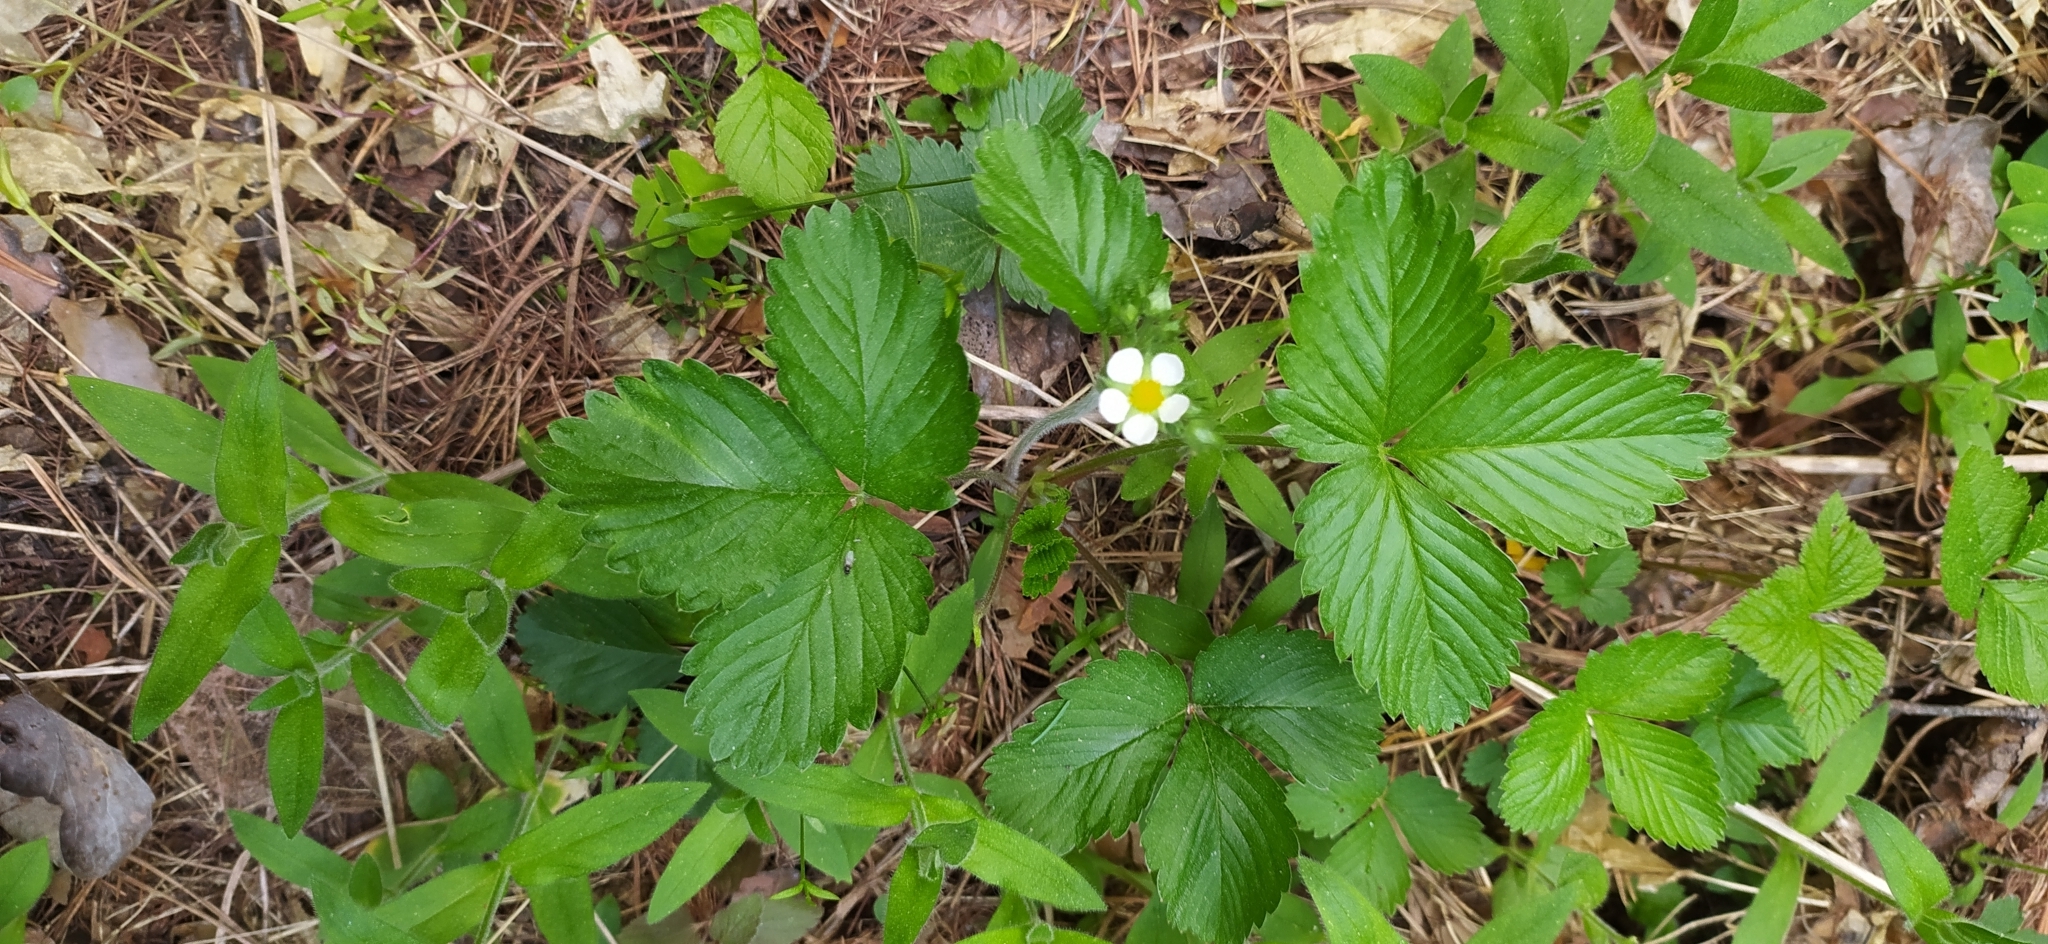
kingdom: Plantae
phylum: Tracheophyta
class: Magnoliopsida
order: Rosales
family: Rosaceae
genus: Fragaria
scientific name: Fragaria vesca
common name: Wild strawberry
